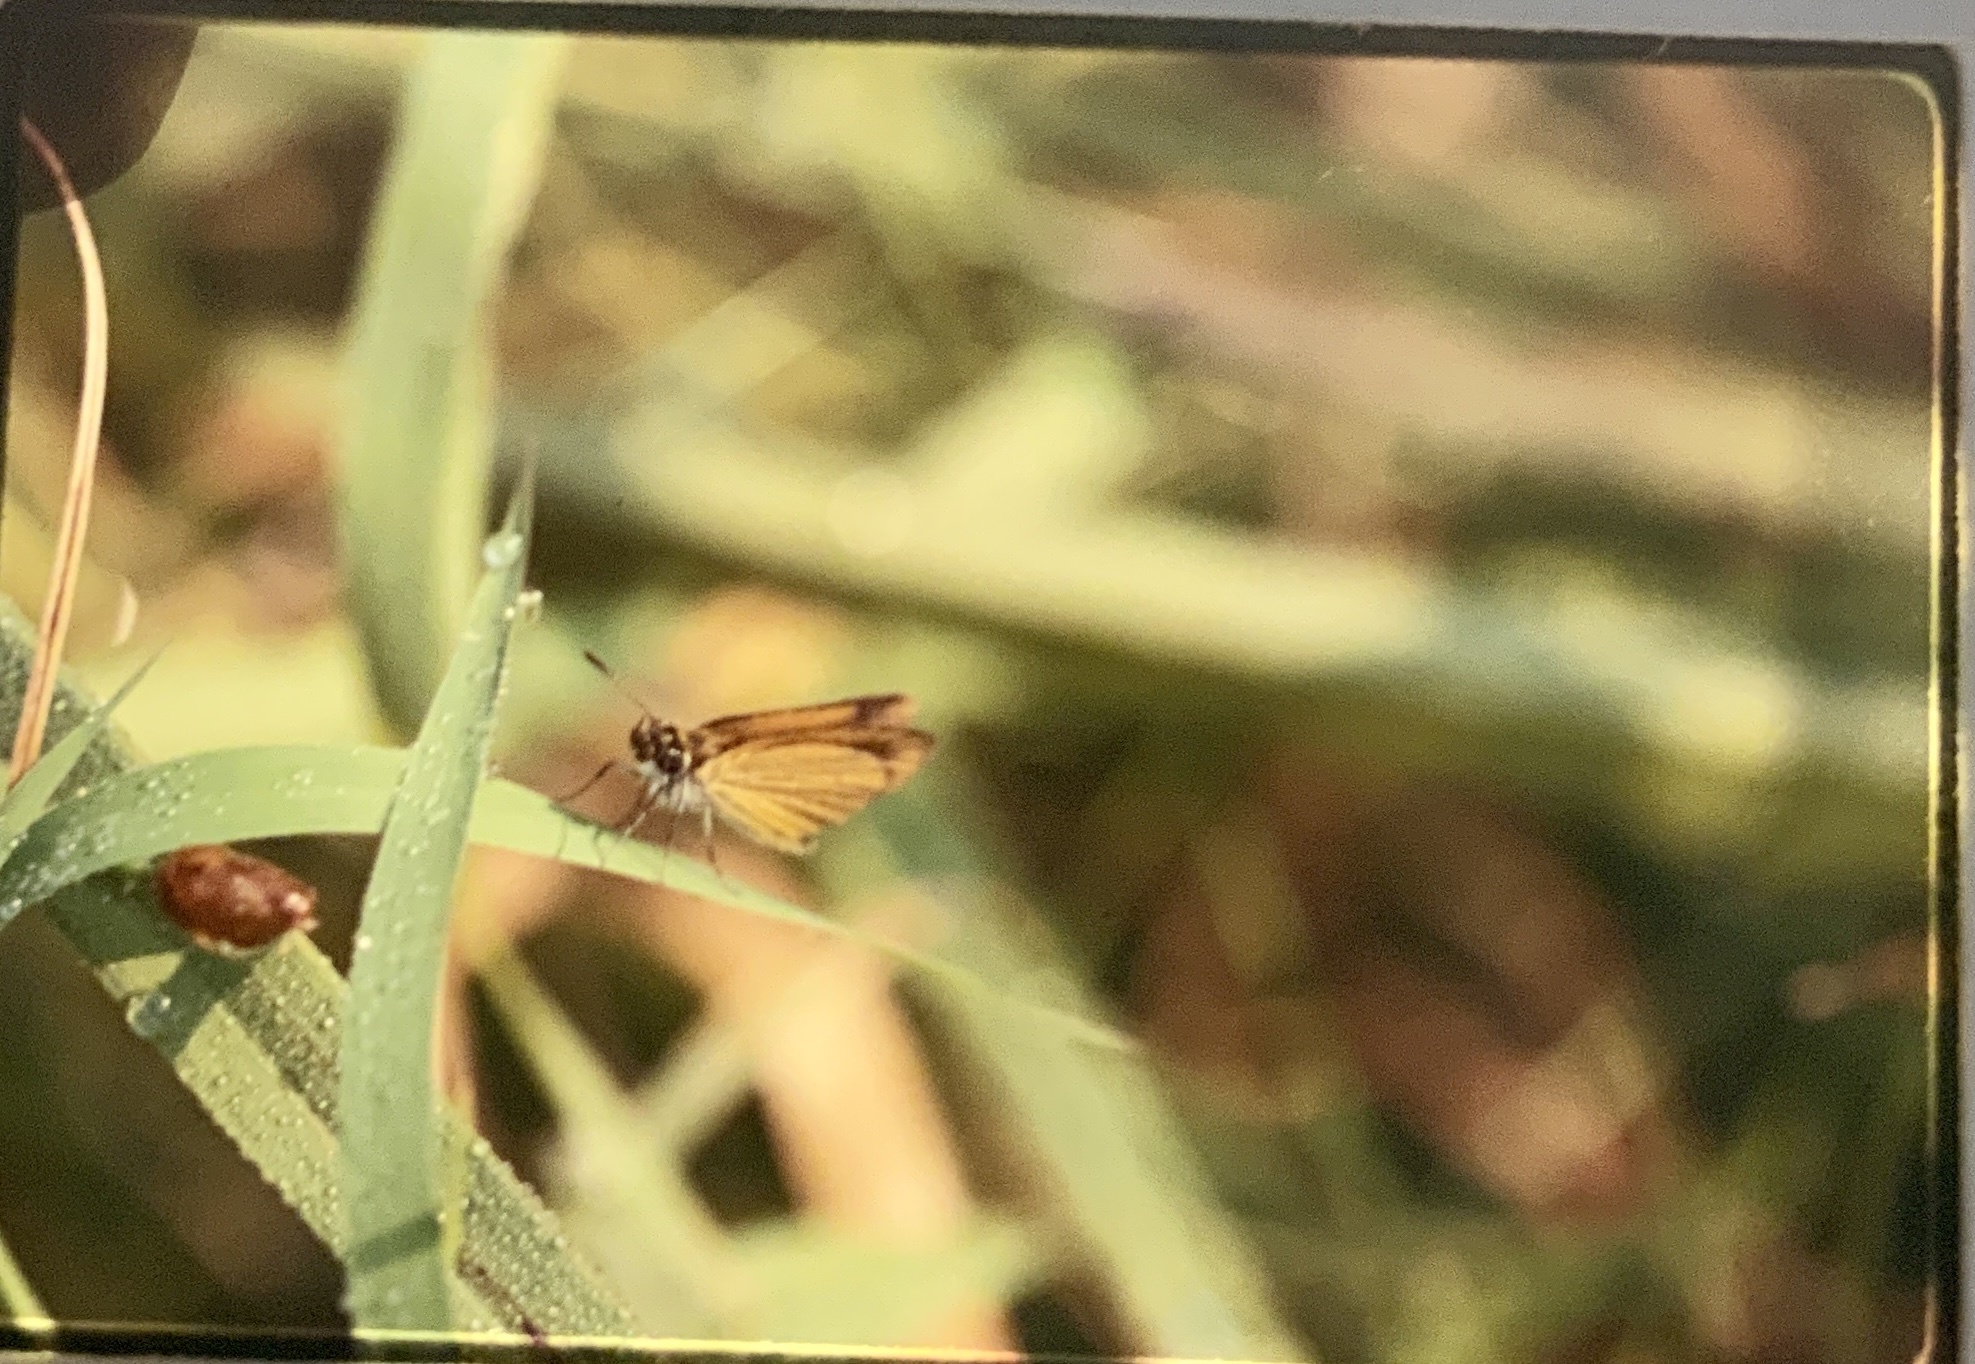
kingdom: Animalia
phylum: Arthropoda
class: Insecta
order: Lepidoptera
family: Hesperiidae
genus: Ancyloxypha
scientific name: Ancyloxypha numitor
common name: Least skipper
